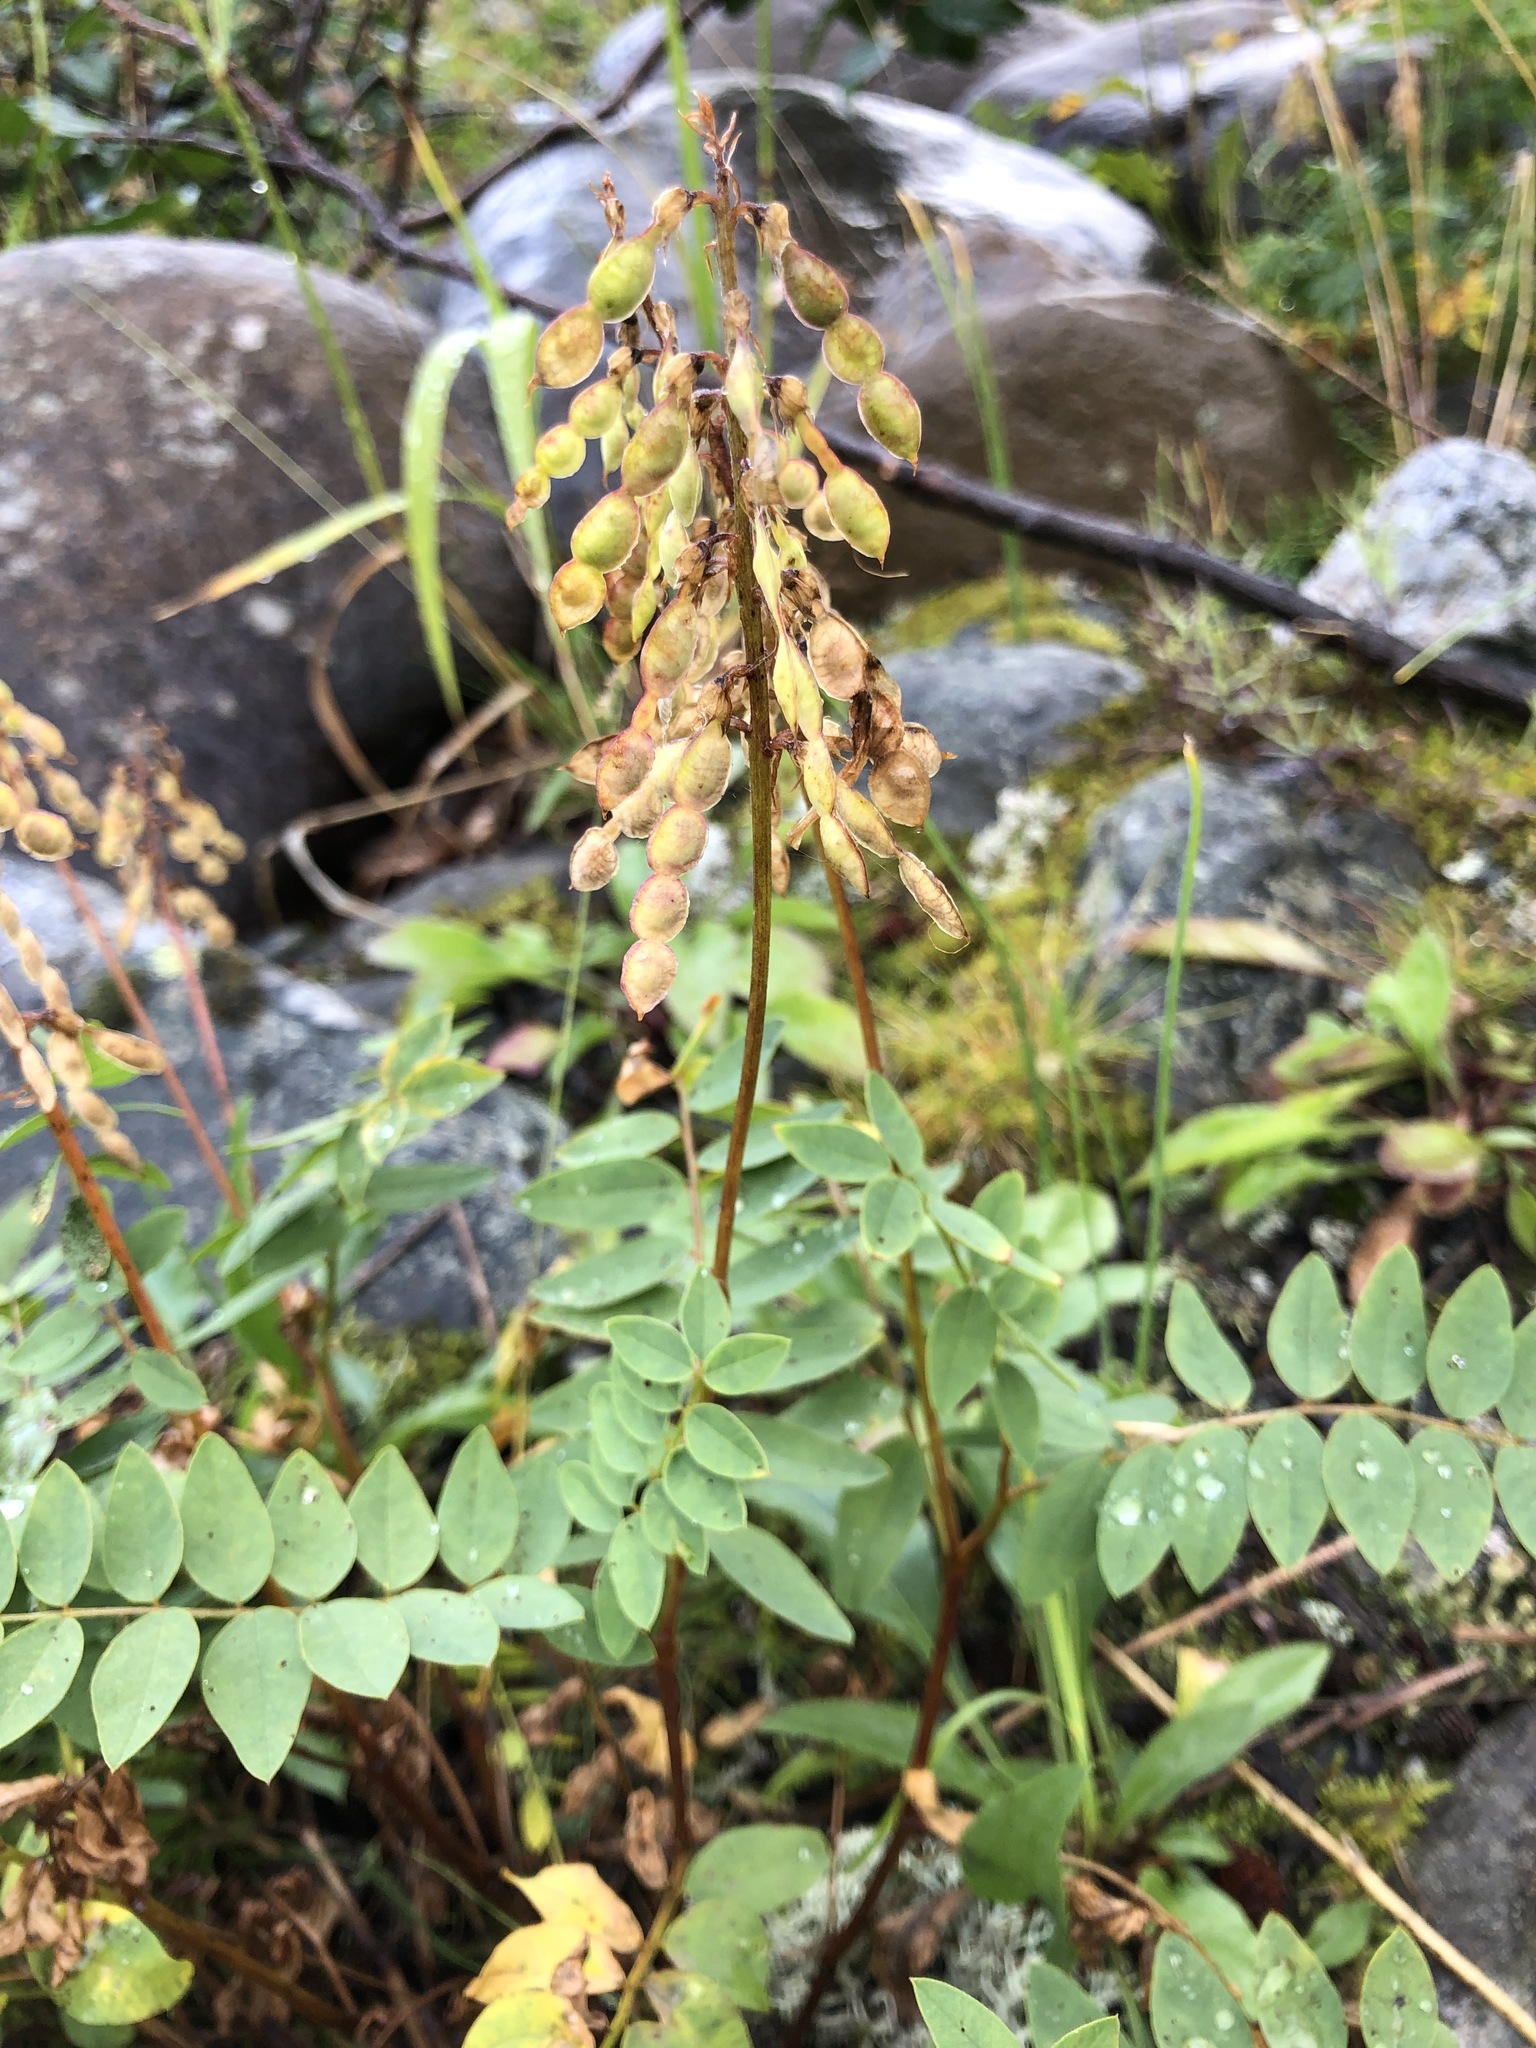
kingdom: Plantae
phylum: Tracheophyta
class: Magnoliopsida
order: Fabales
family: Fabaceae
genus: Hedysarum
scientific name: Hedysarum hedysaroides
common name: Alpine french-honeysuckle
